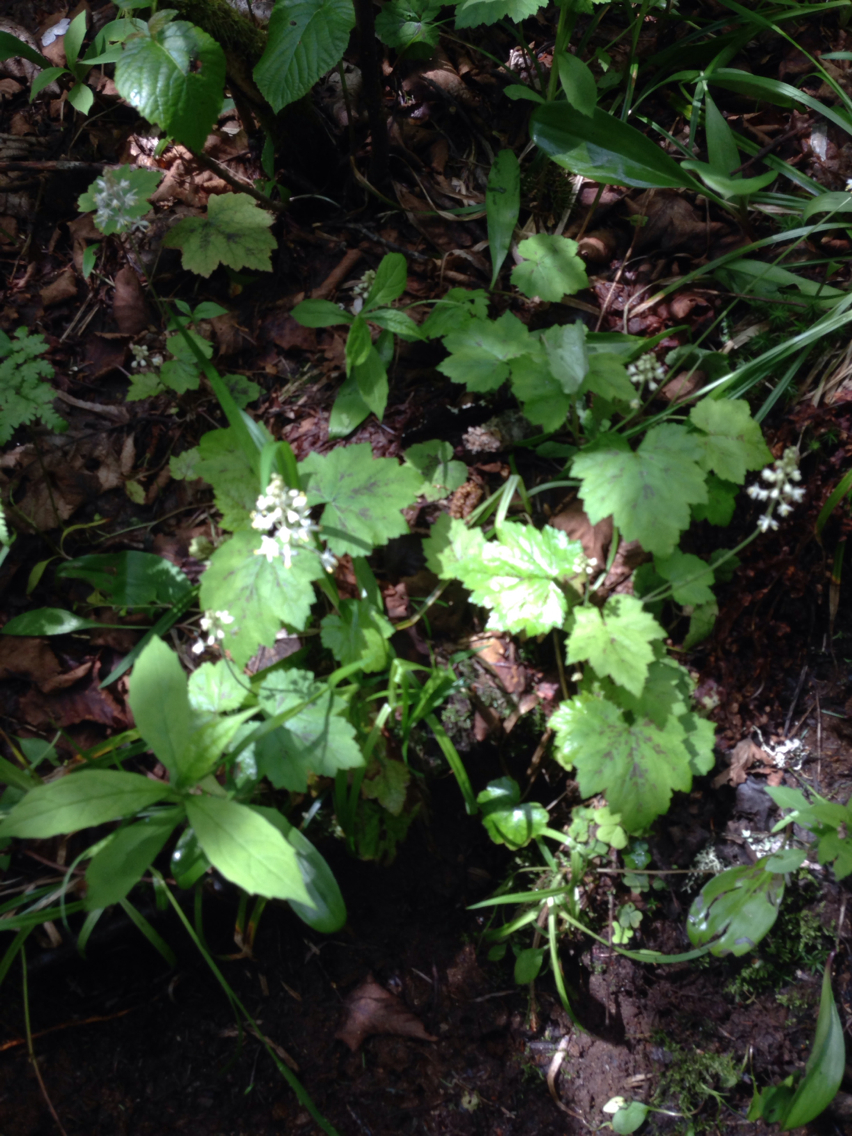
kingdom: Plantae
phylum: Tracheophyta
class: Magnoliopsida
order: Saxifragales
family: Saxifragaceae
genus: Tiarella
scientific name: Tiarella stolonifera
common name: Stoloniferous foamflower
